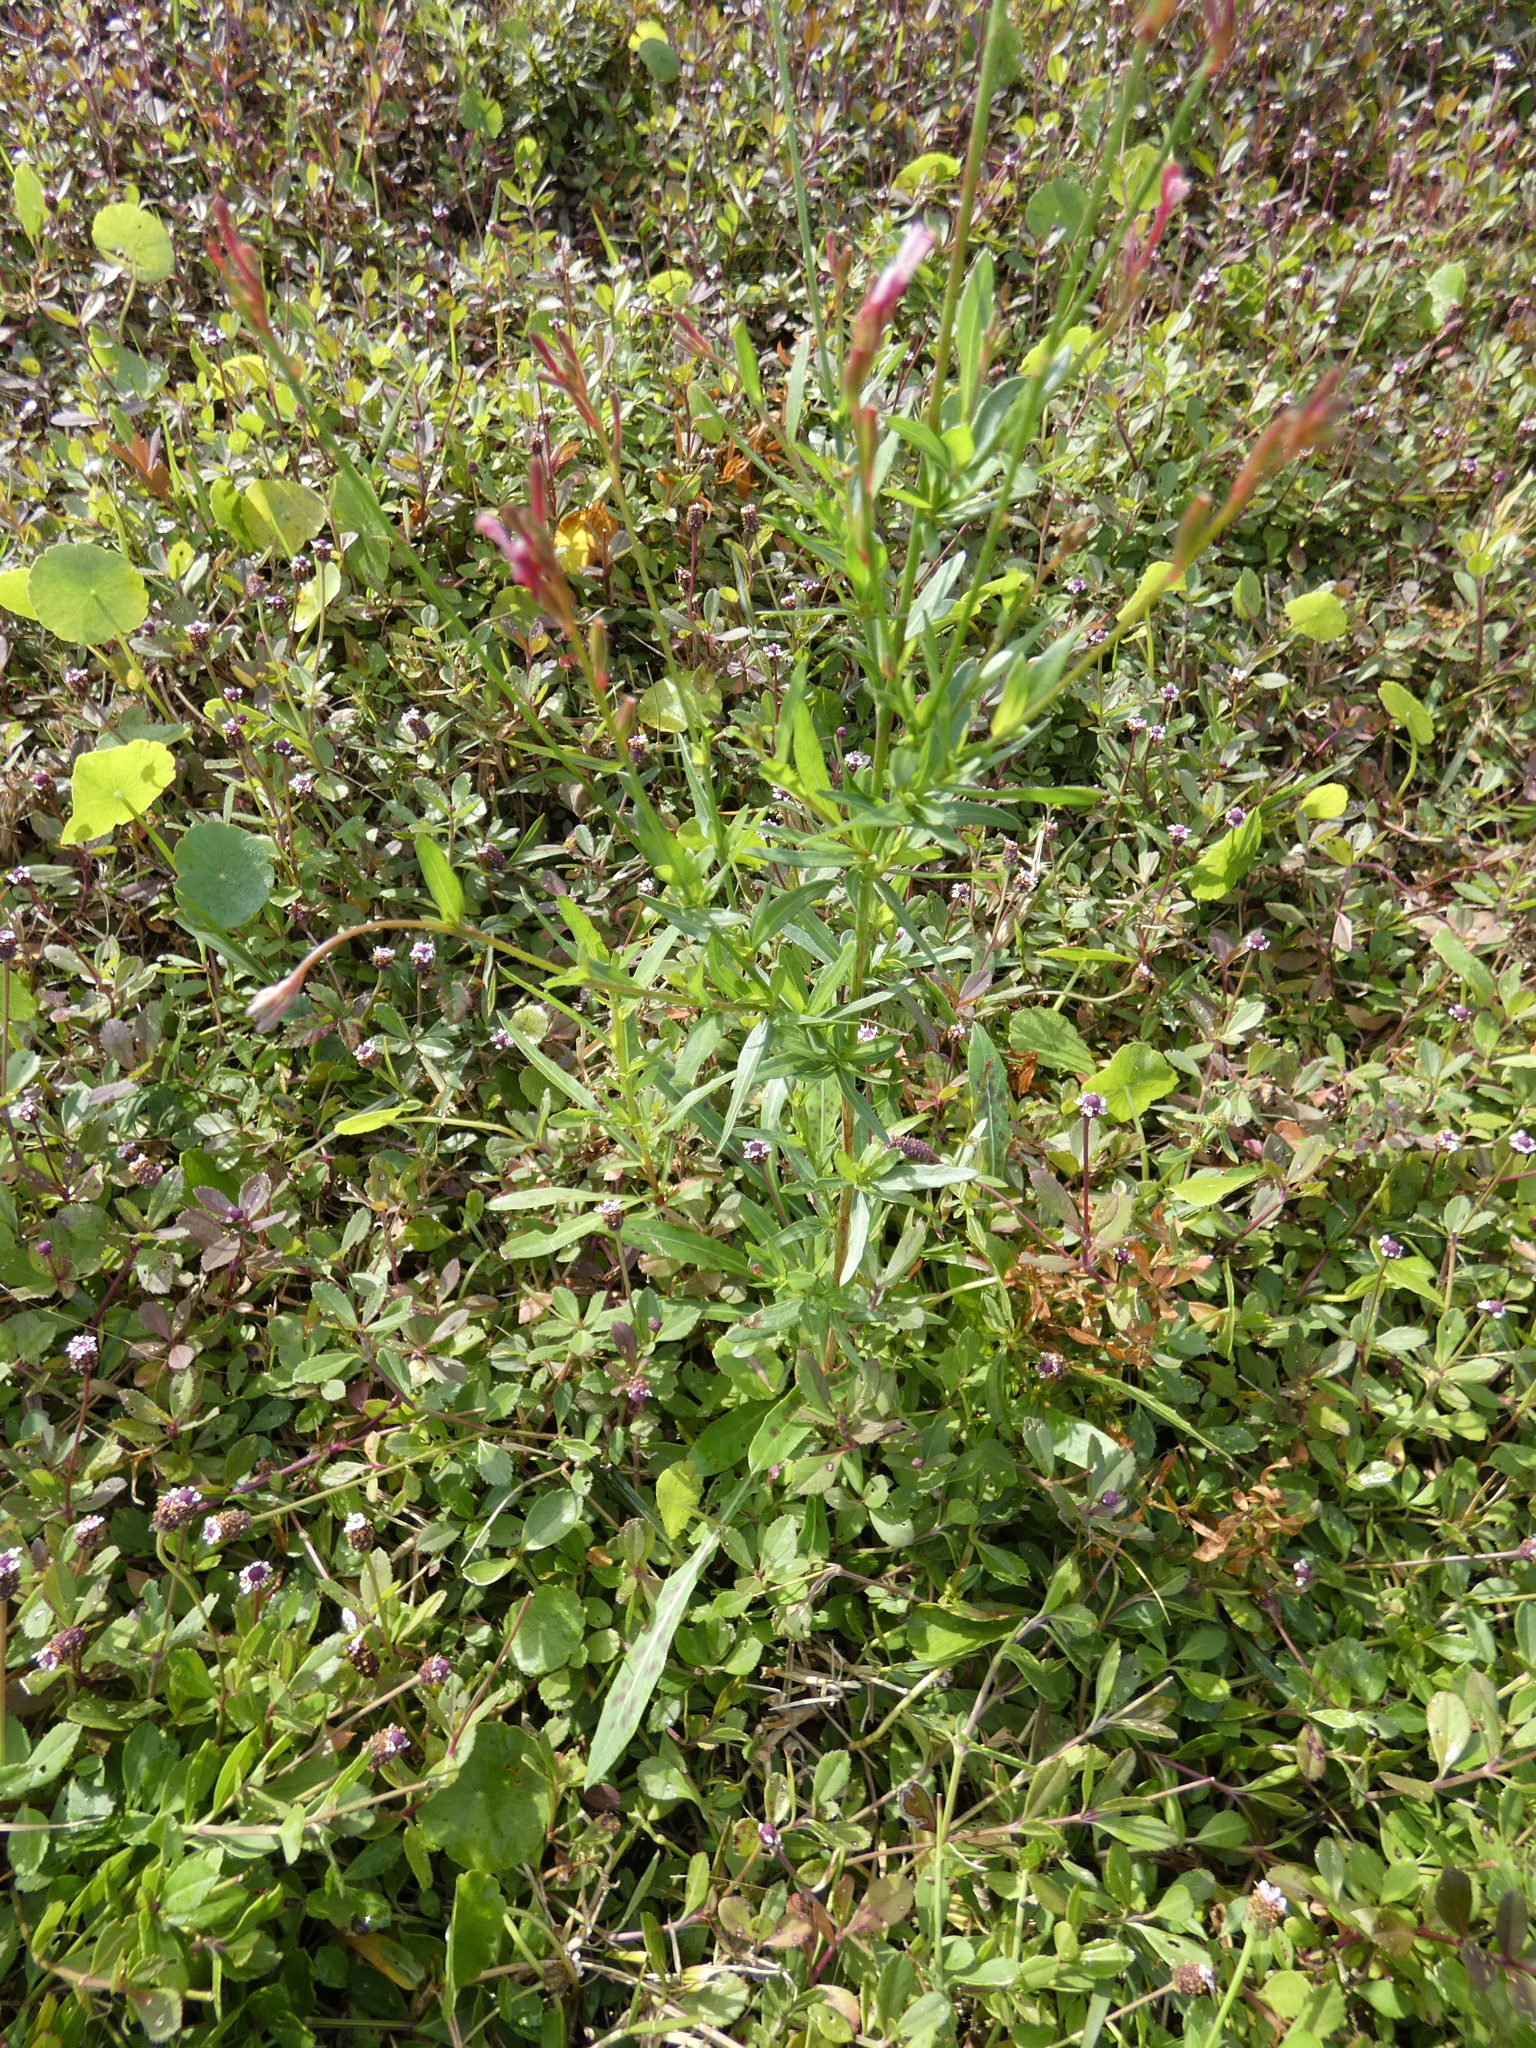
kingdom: Plantae
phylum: Tracheophyta
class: Magnoliopsida
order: Myrtales
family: Onagraceae
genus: Oenothera
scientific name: Oenothera simulans
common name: Southern beeblossom
